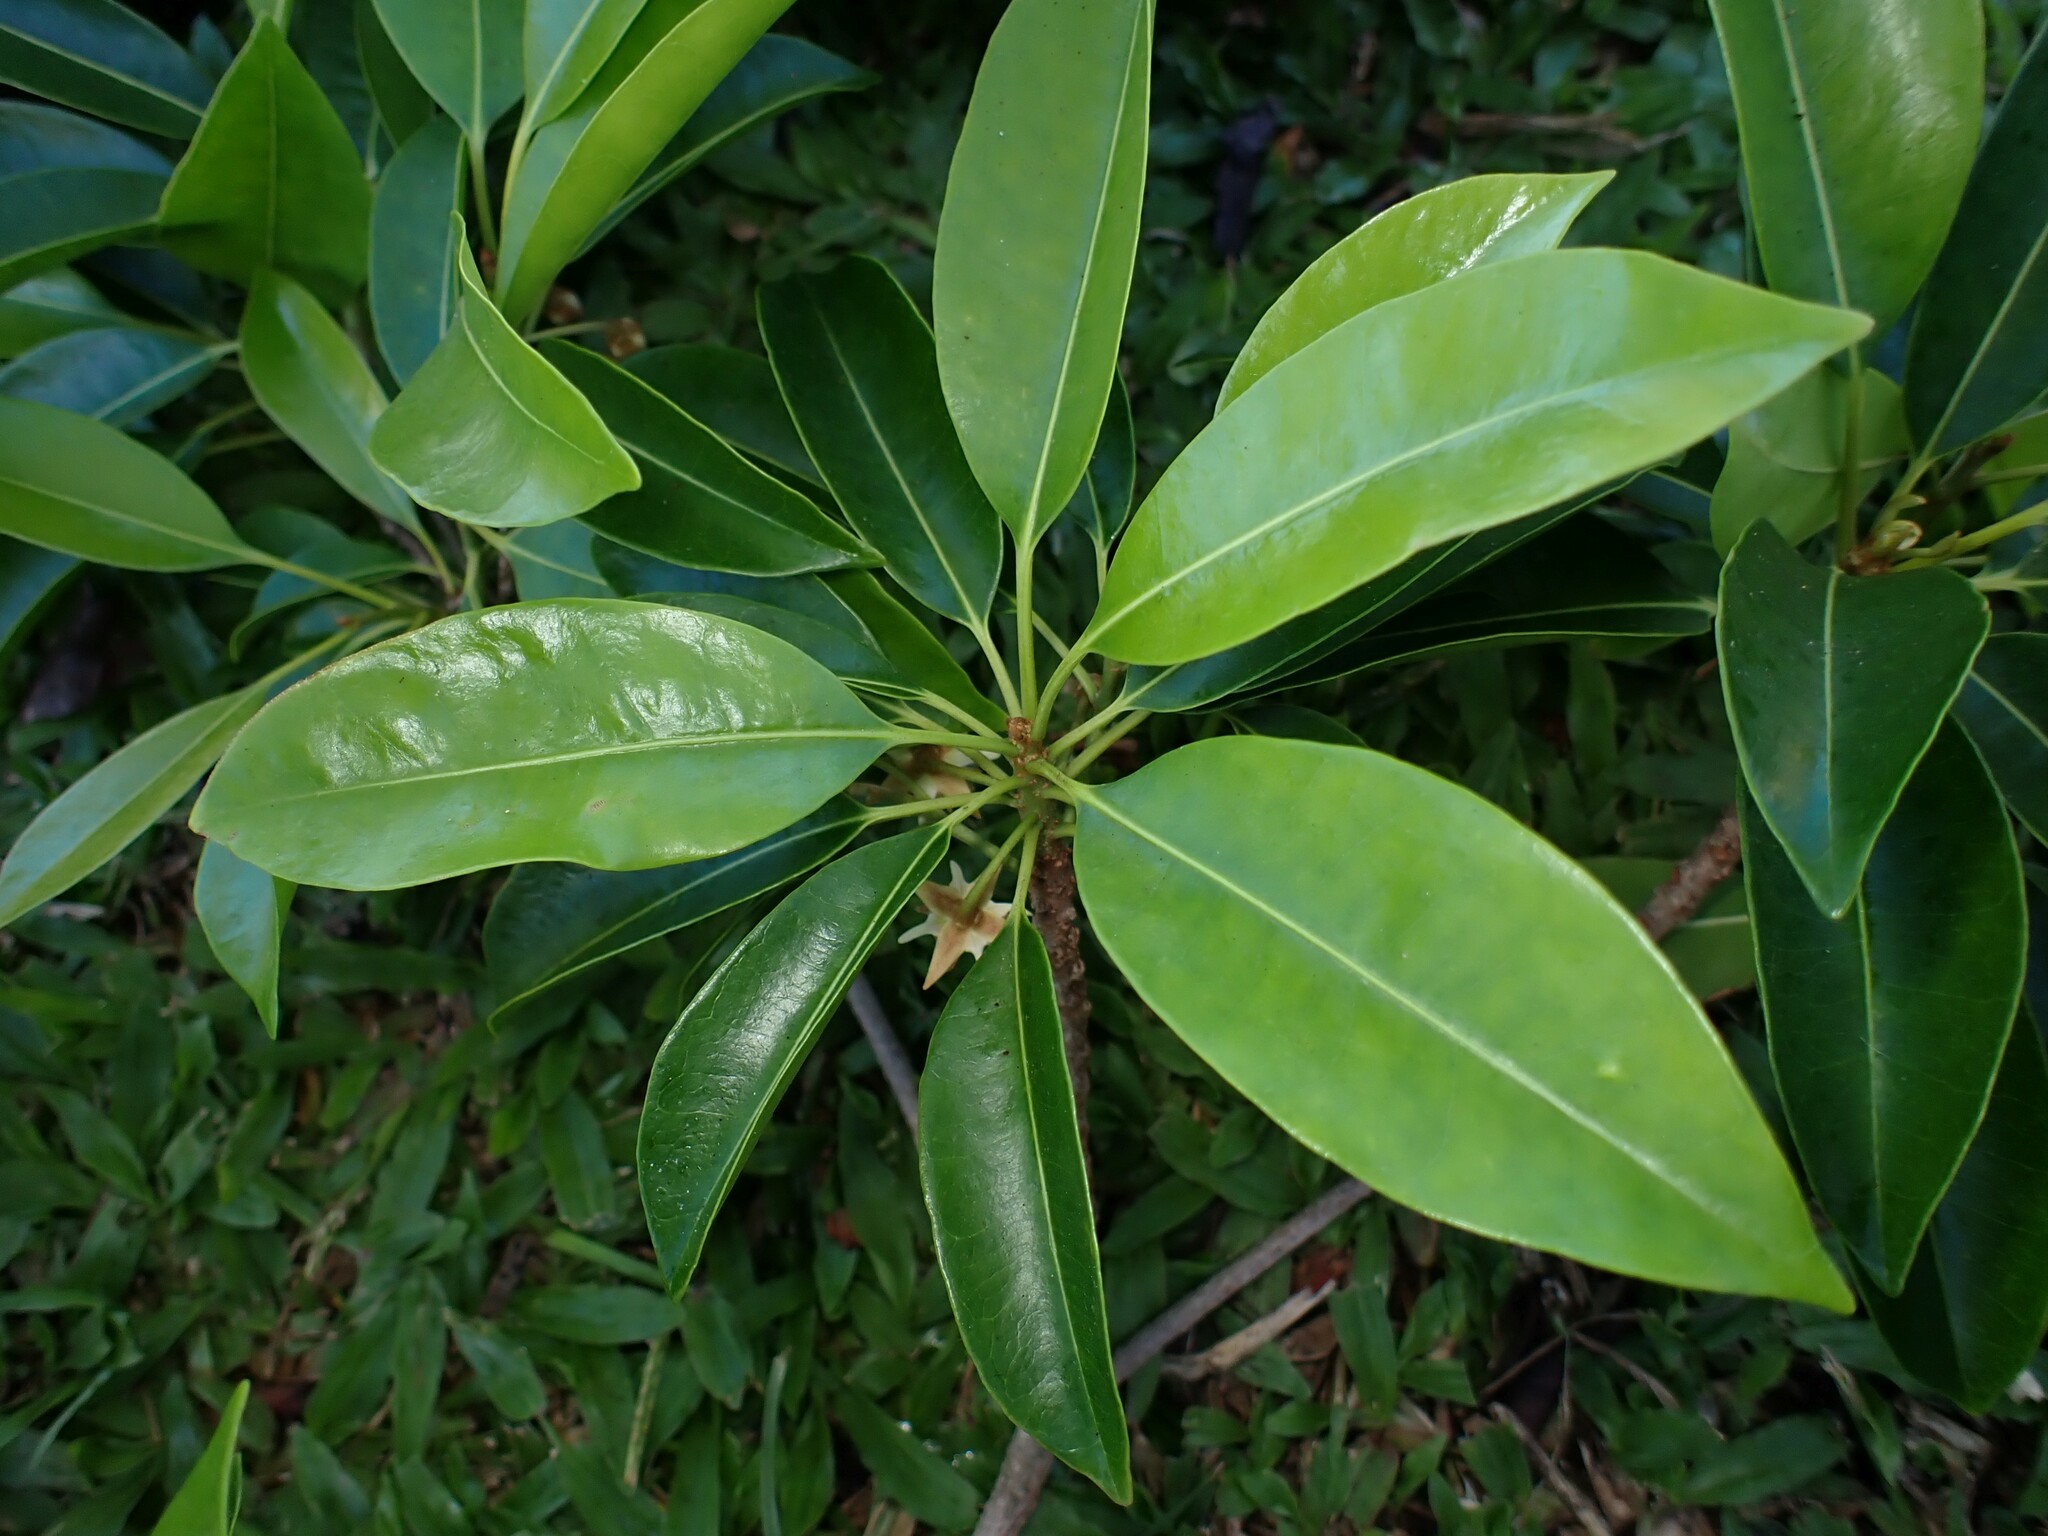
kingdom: Plantae
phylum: Tracheophyta
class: Magnoliopsida
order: Ericales
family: Sapotaceae
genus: Mimusops
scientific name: Mimusops elengi
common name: Spanish cherry
